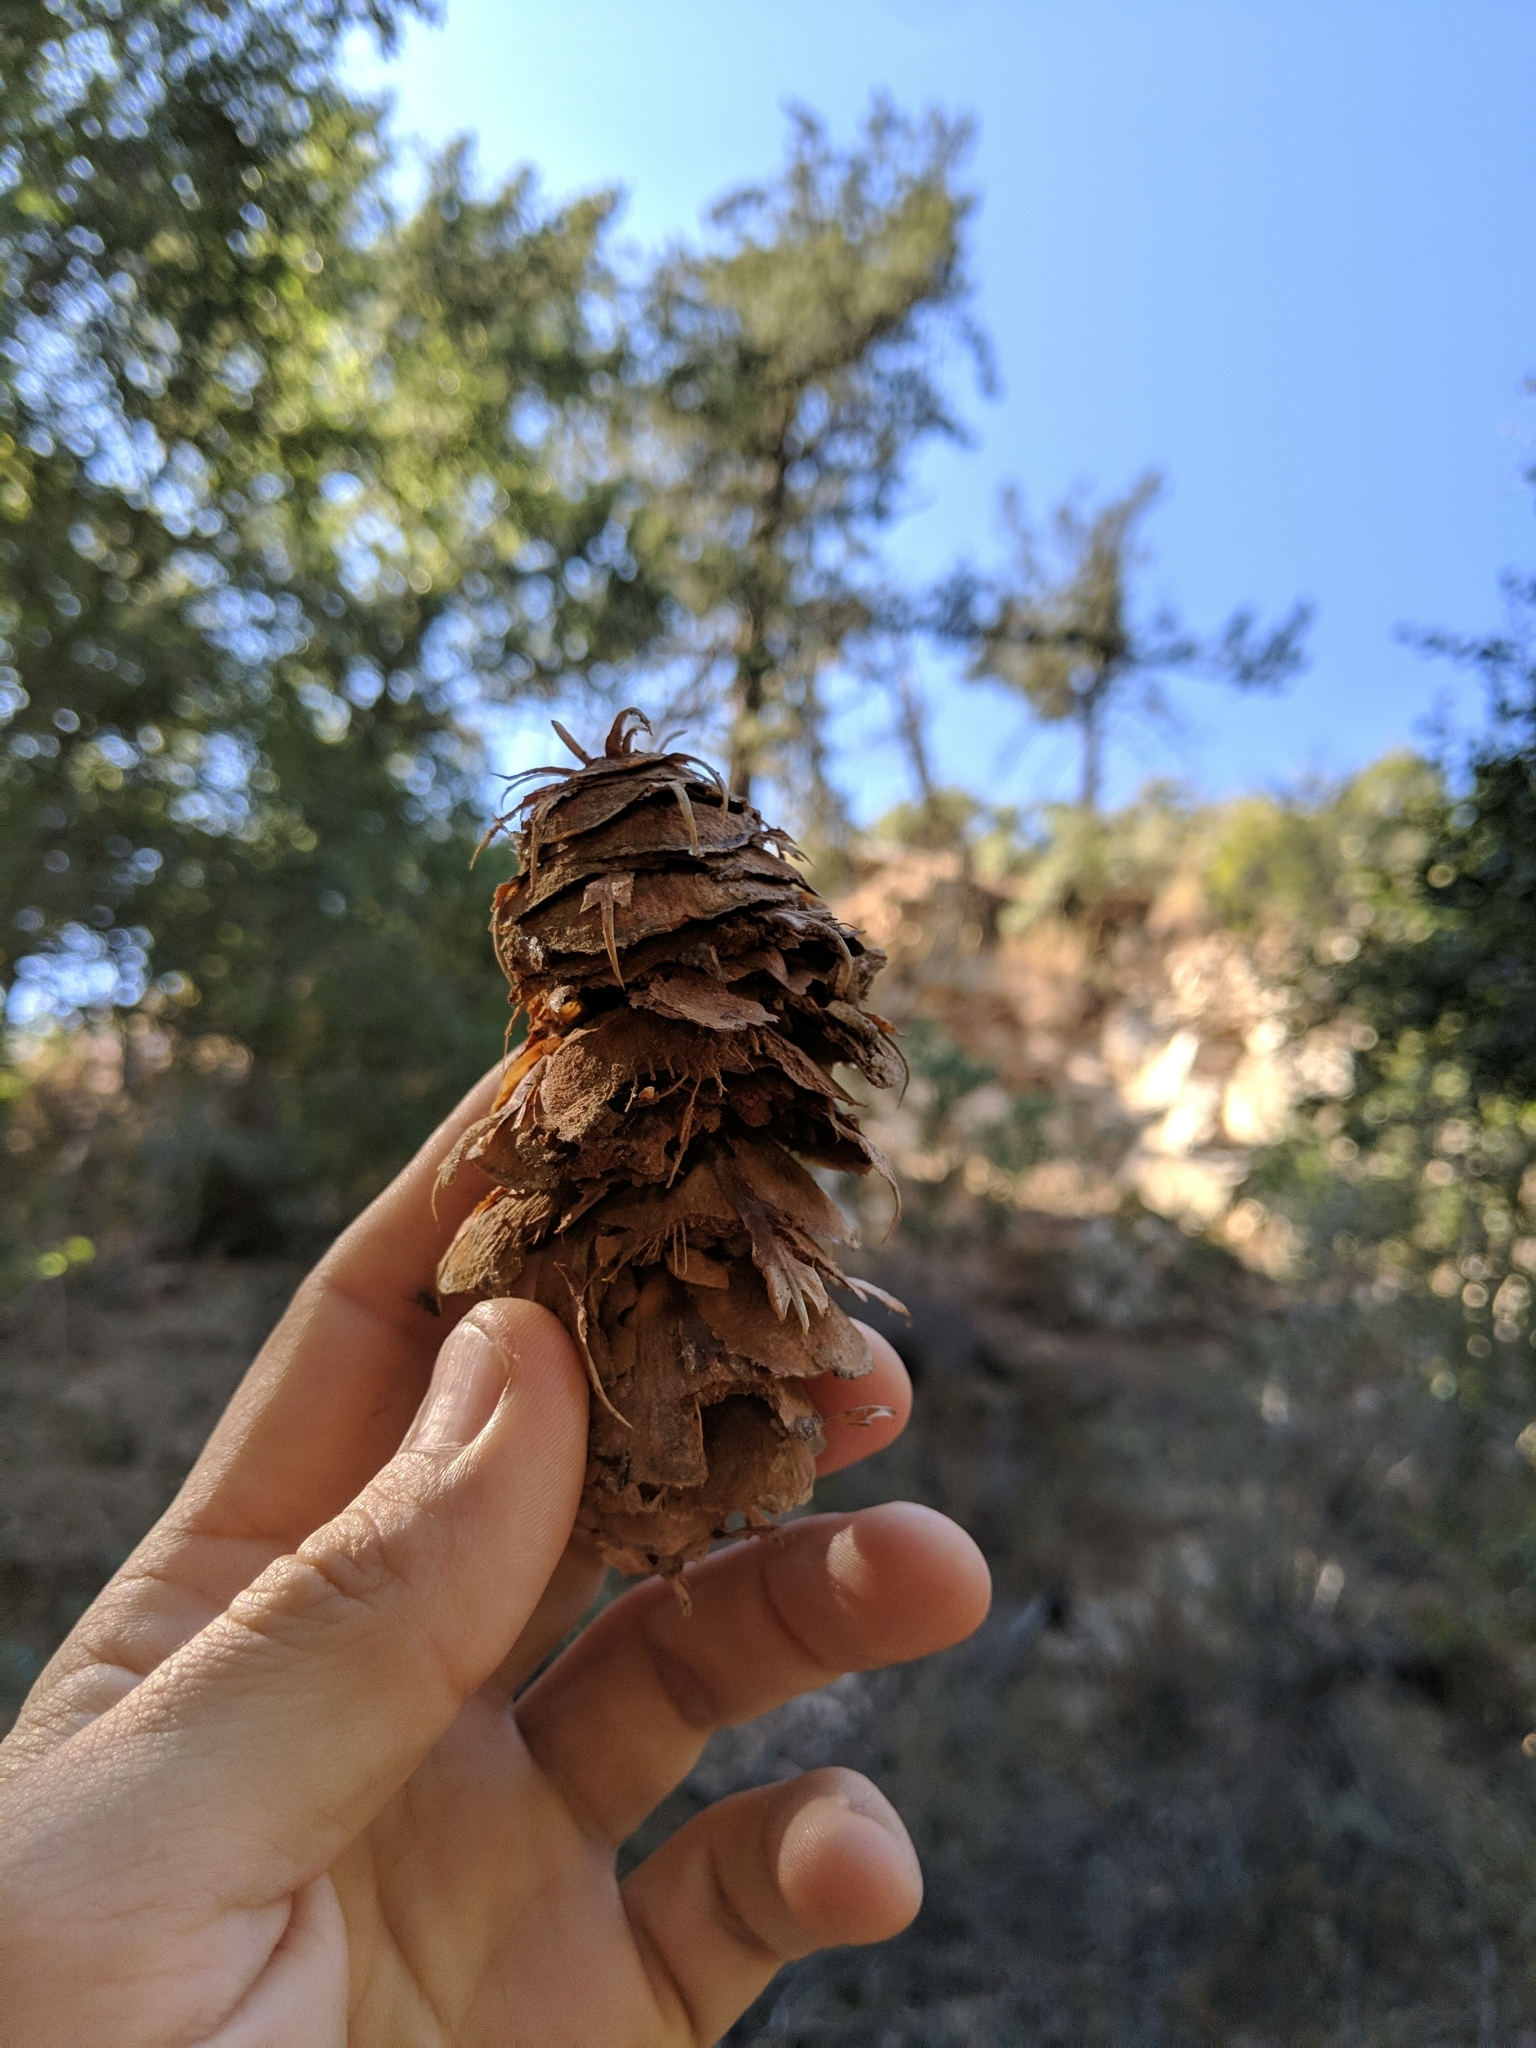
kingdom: Plantae
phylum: Tracheophyta
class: Pinopsida
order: Pinales
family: Pinaceae
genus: Pseudotsuga
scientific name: Pseudotsuga macrocarpa
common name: Big-cone douglas-fir
